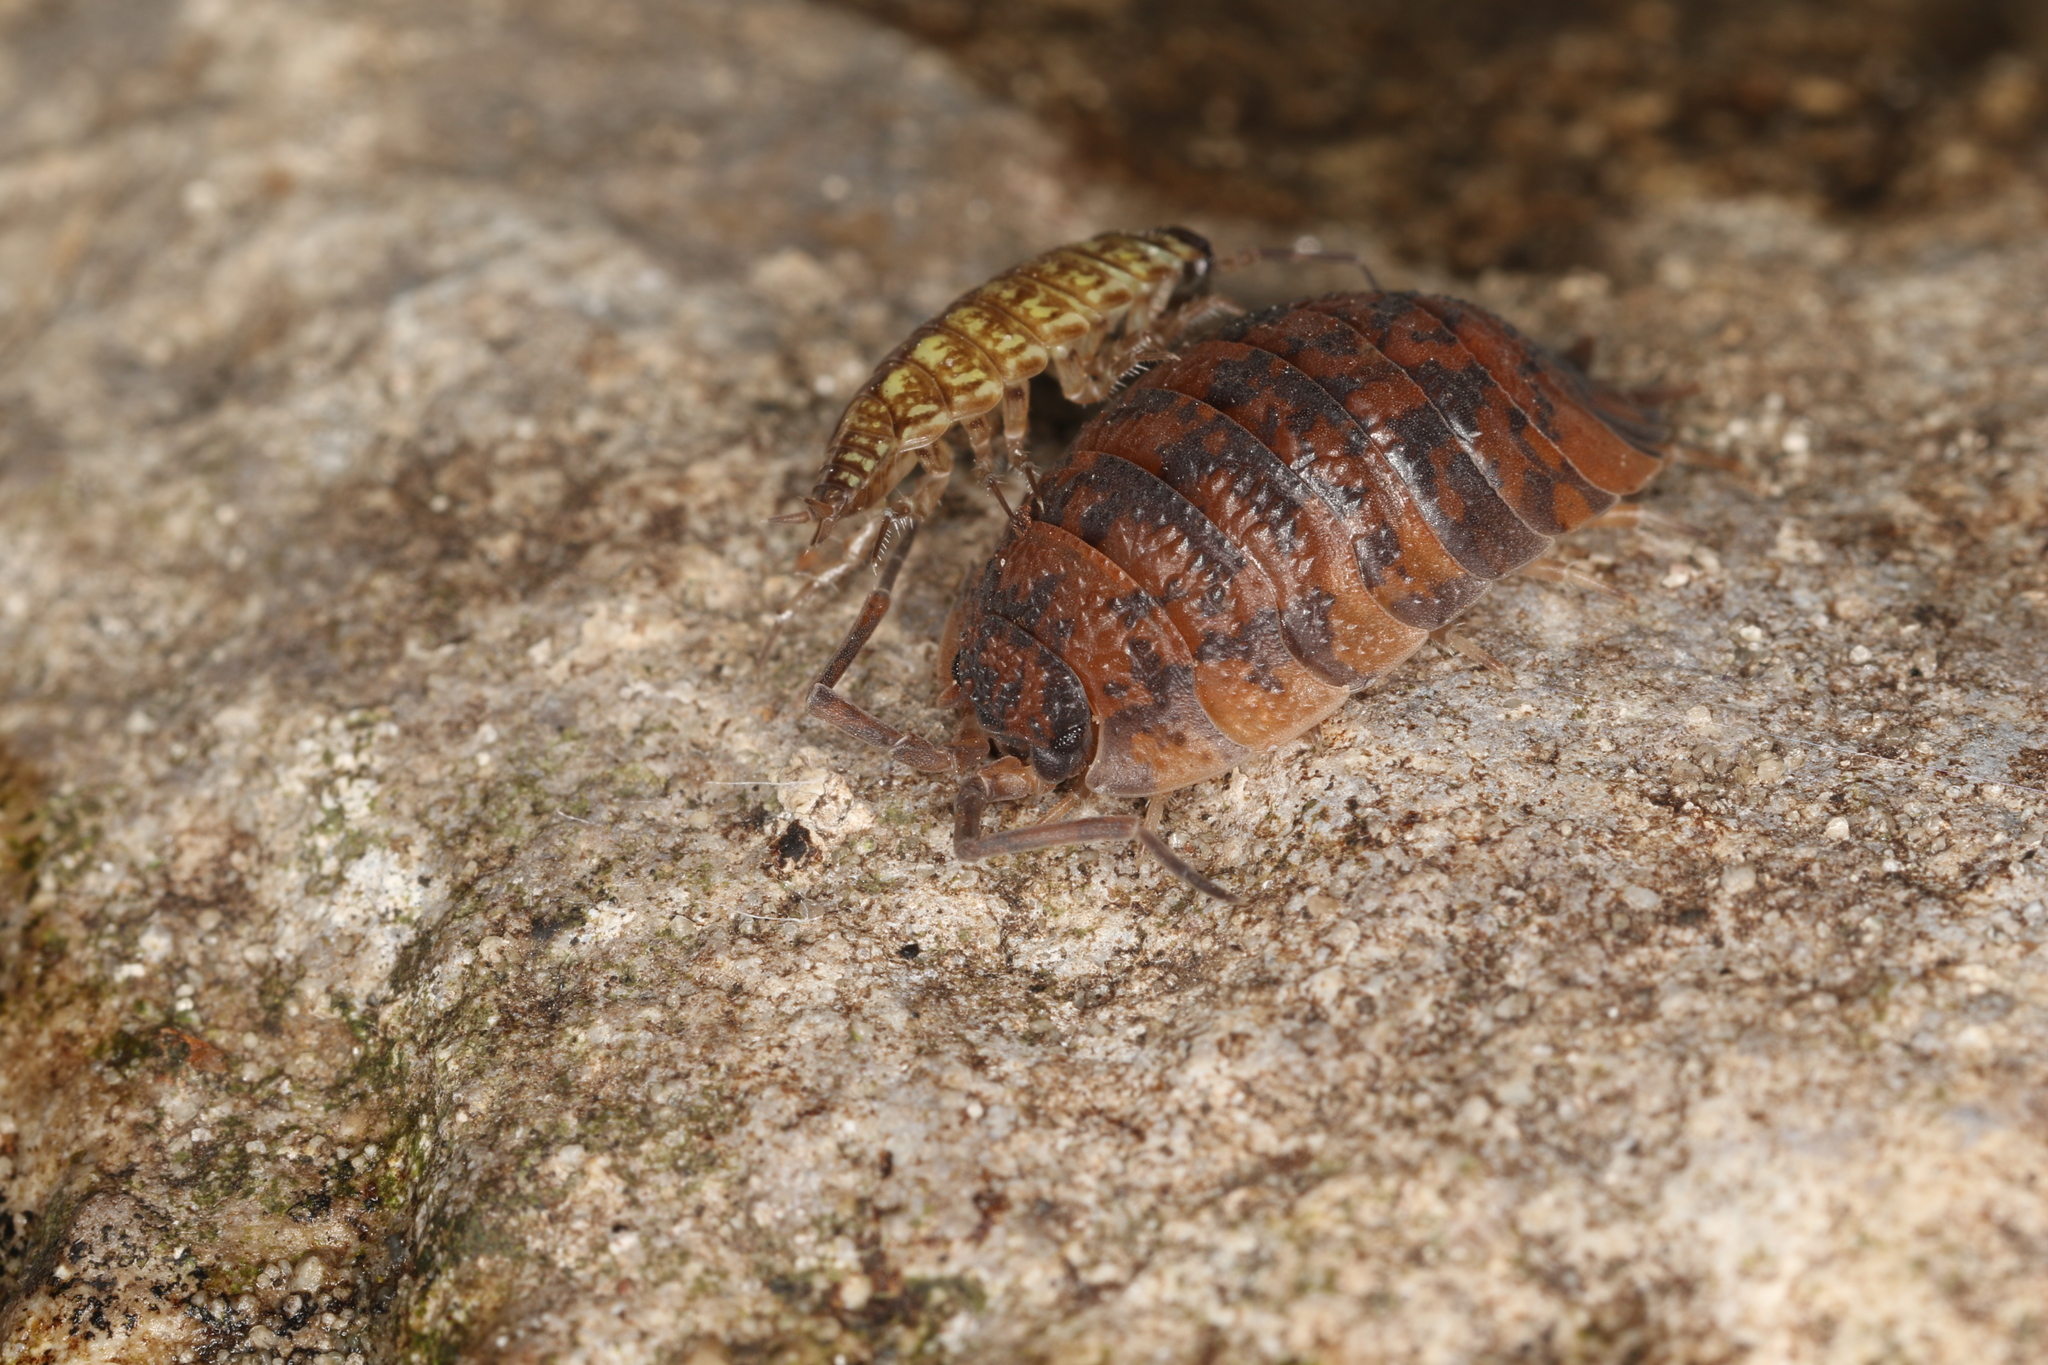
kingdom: Animalia
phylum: Arthropoda
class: Malacostraca
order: Isopoda
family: Porcellionidae
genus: Porcellio
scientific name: Porcellio scaber
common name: Common rough woodlouse
